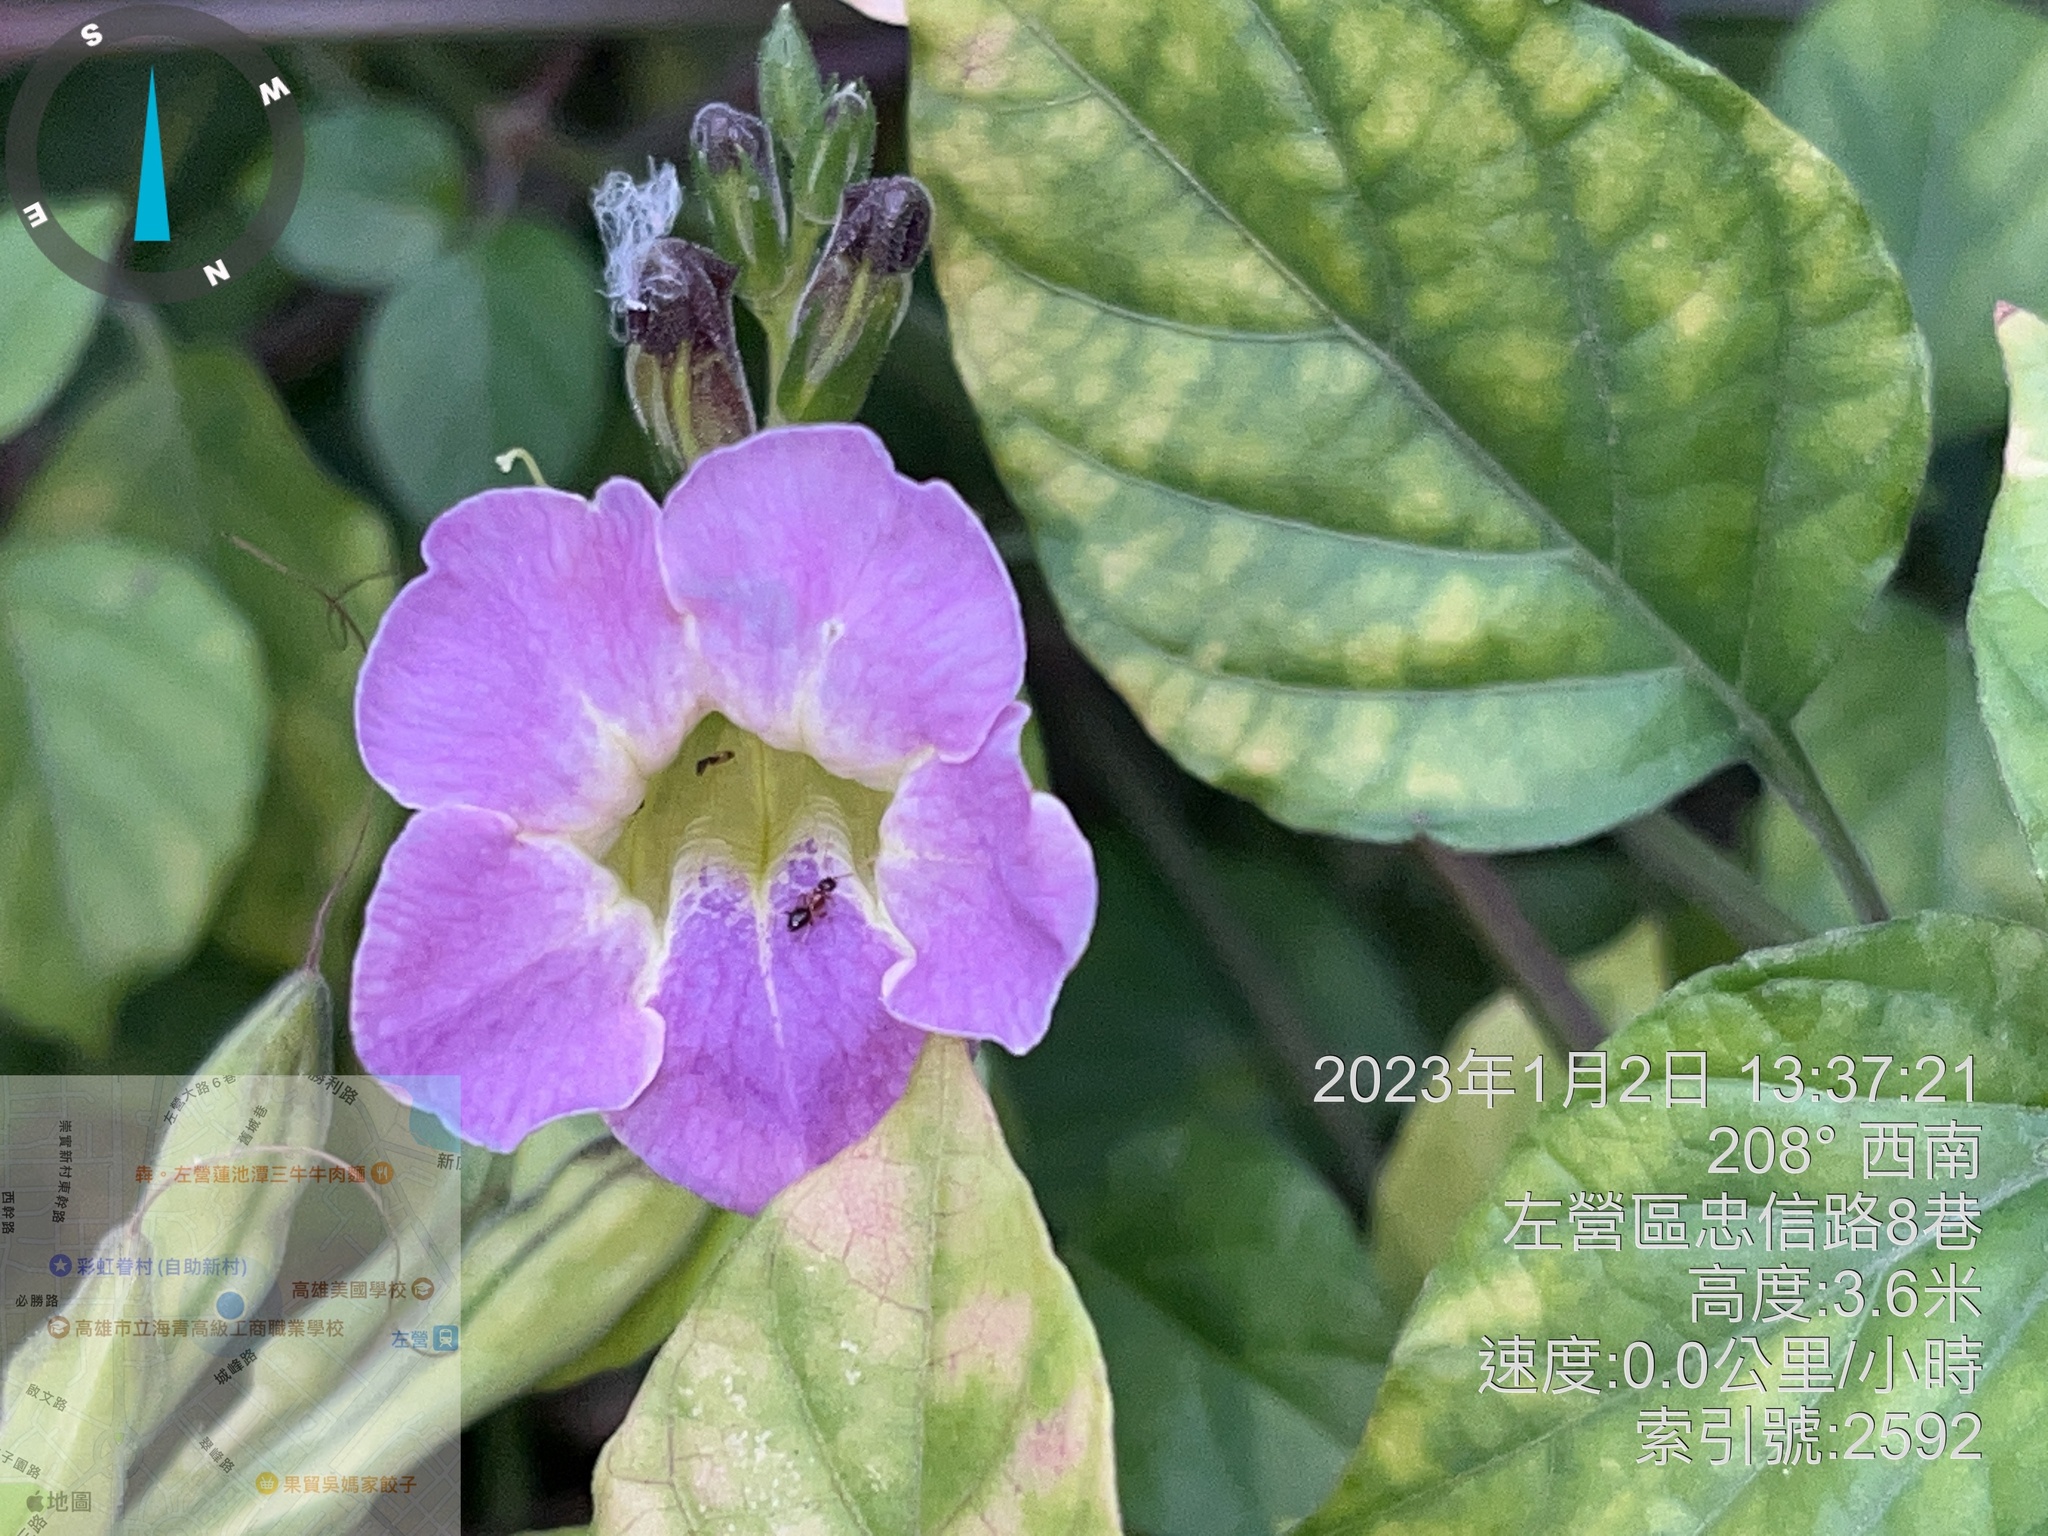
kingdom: Plantae
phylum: Tracheophyta
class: Magnoliopsida
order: Lamiales
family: Acanthaceae
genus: Asystasia
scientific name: Asystasia gangetica
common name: Chinese violet
